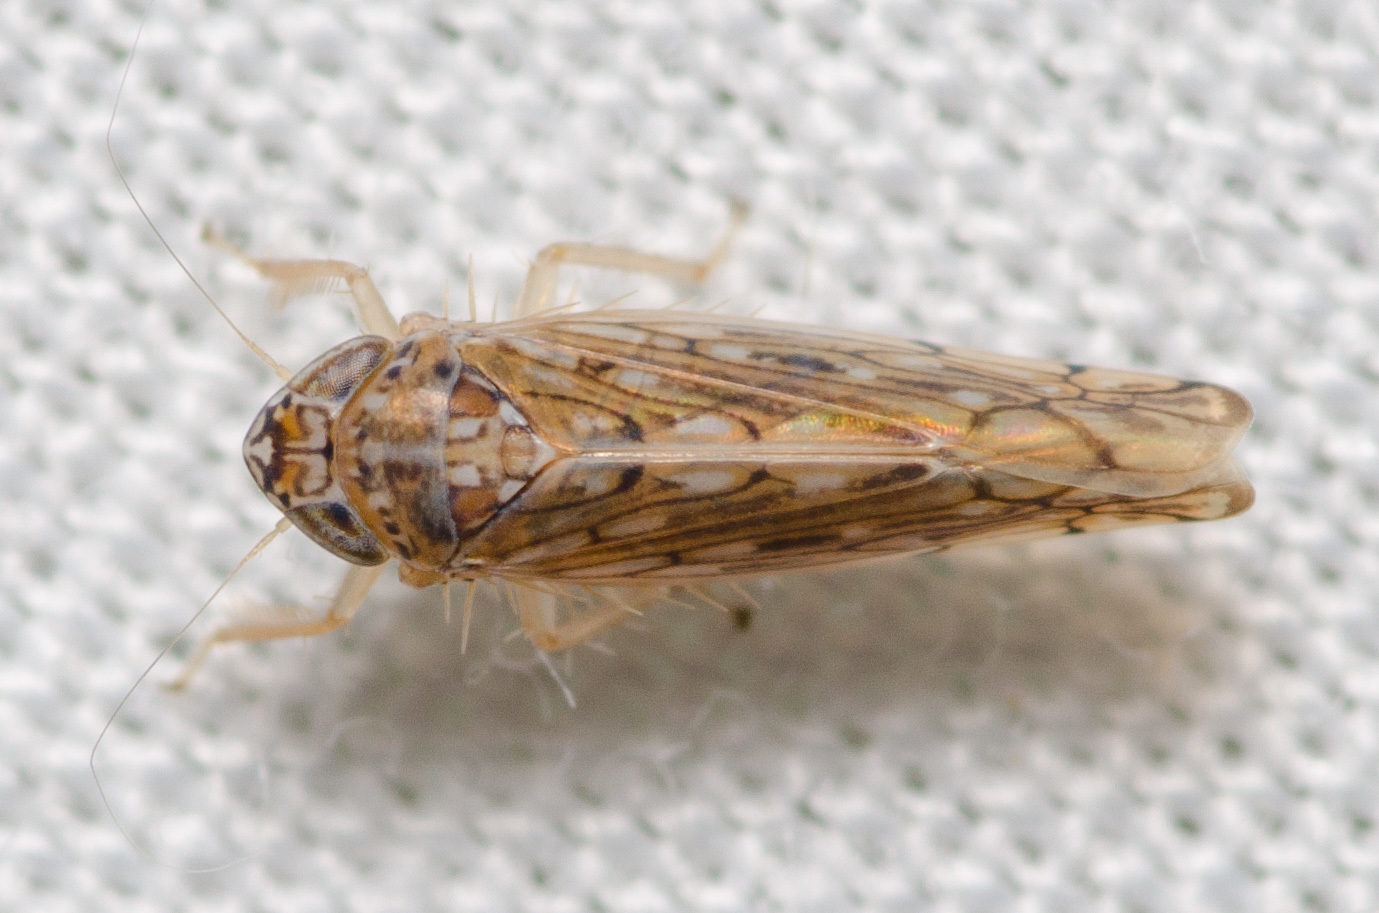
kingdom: Animalia
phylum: Arthropoda
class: Insecta
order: Hemiptera
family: Cicadellidae
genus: Osbornellus
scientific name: Osbornellus clarus
